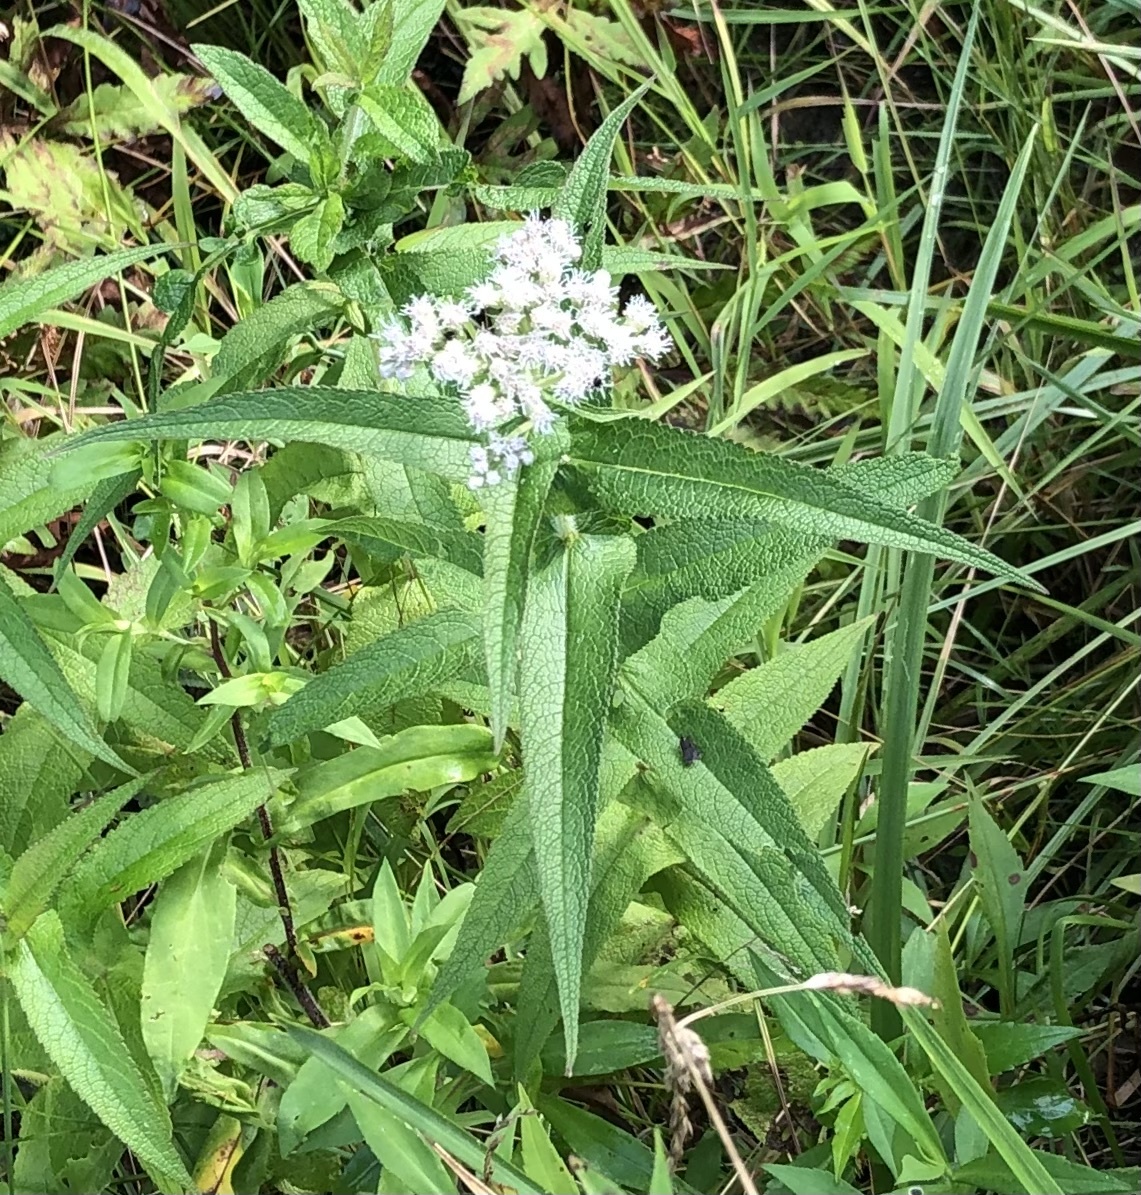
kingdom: Plantae
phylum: Tracheophyta
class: Magnoliopsida
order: Asterales
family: Asteraceae
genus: Eupatorium
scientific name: Eupatorium perfoliatum
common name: Boneset
